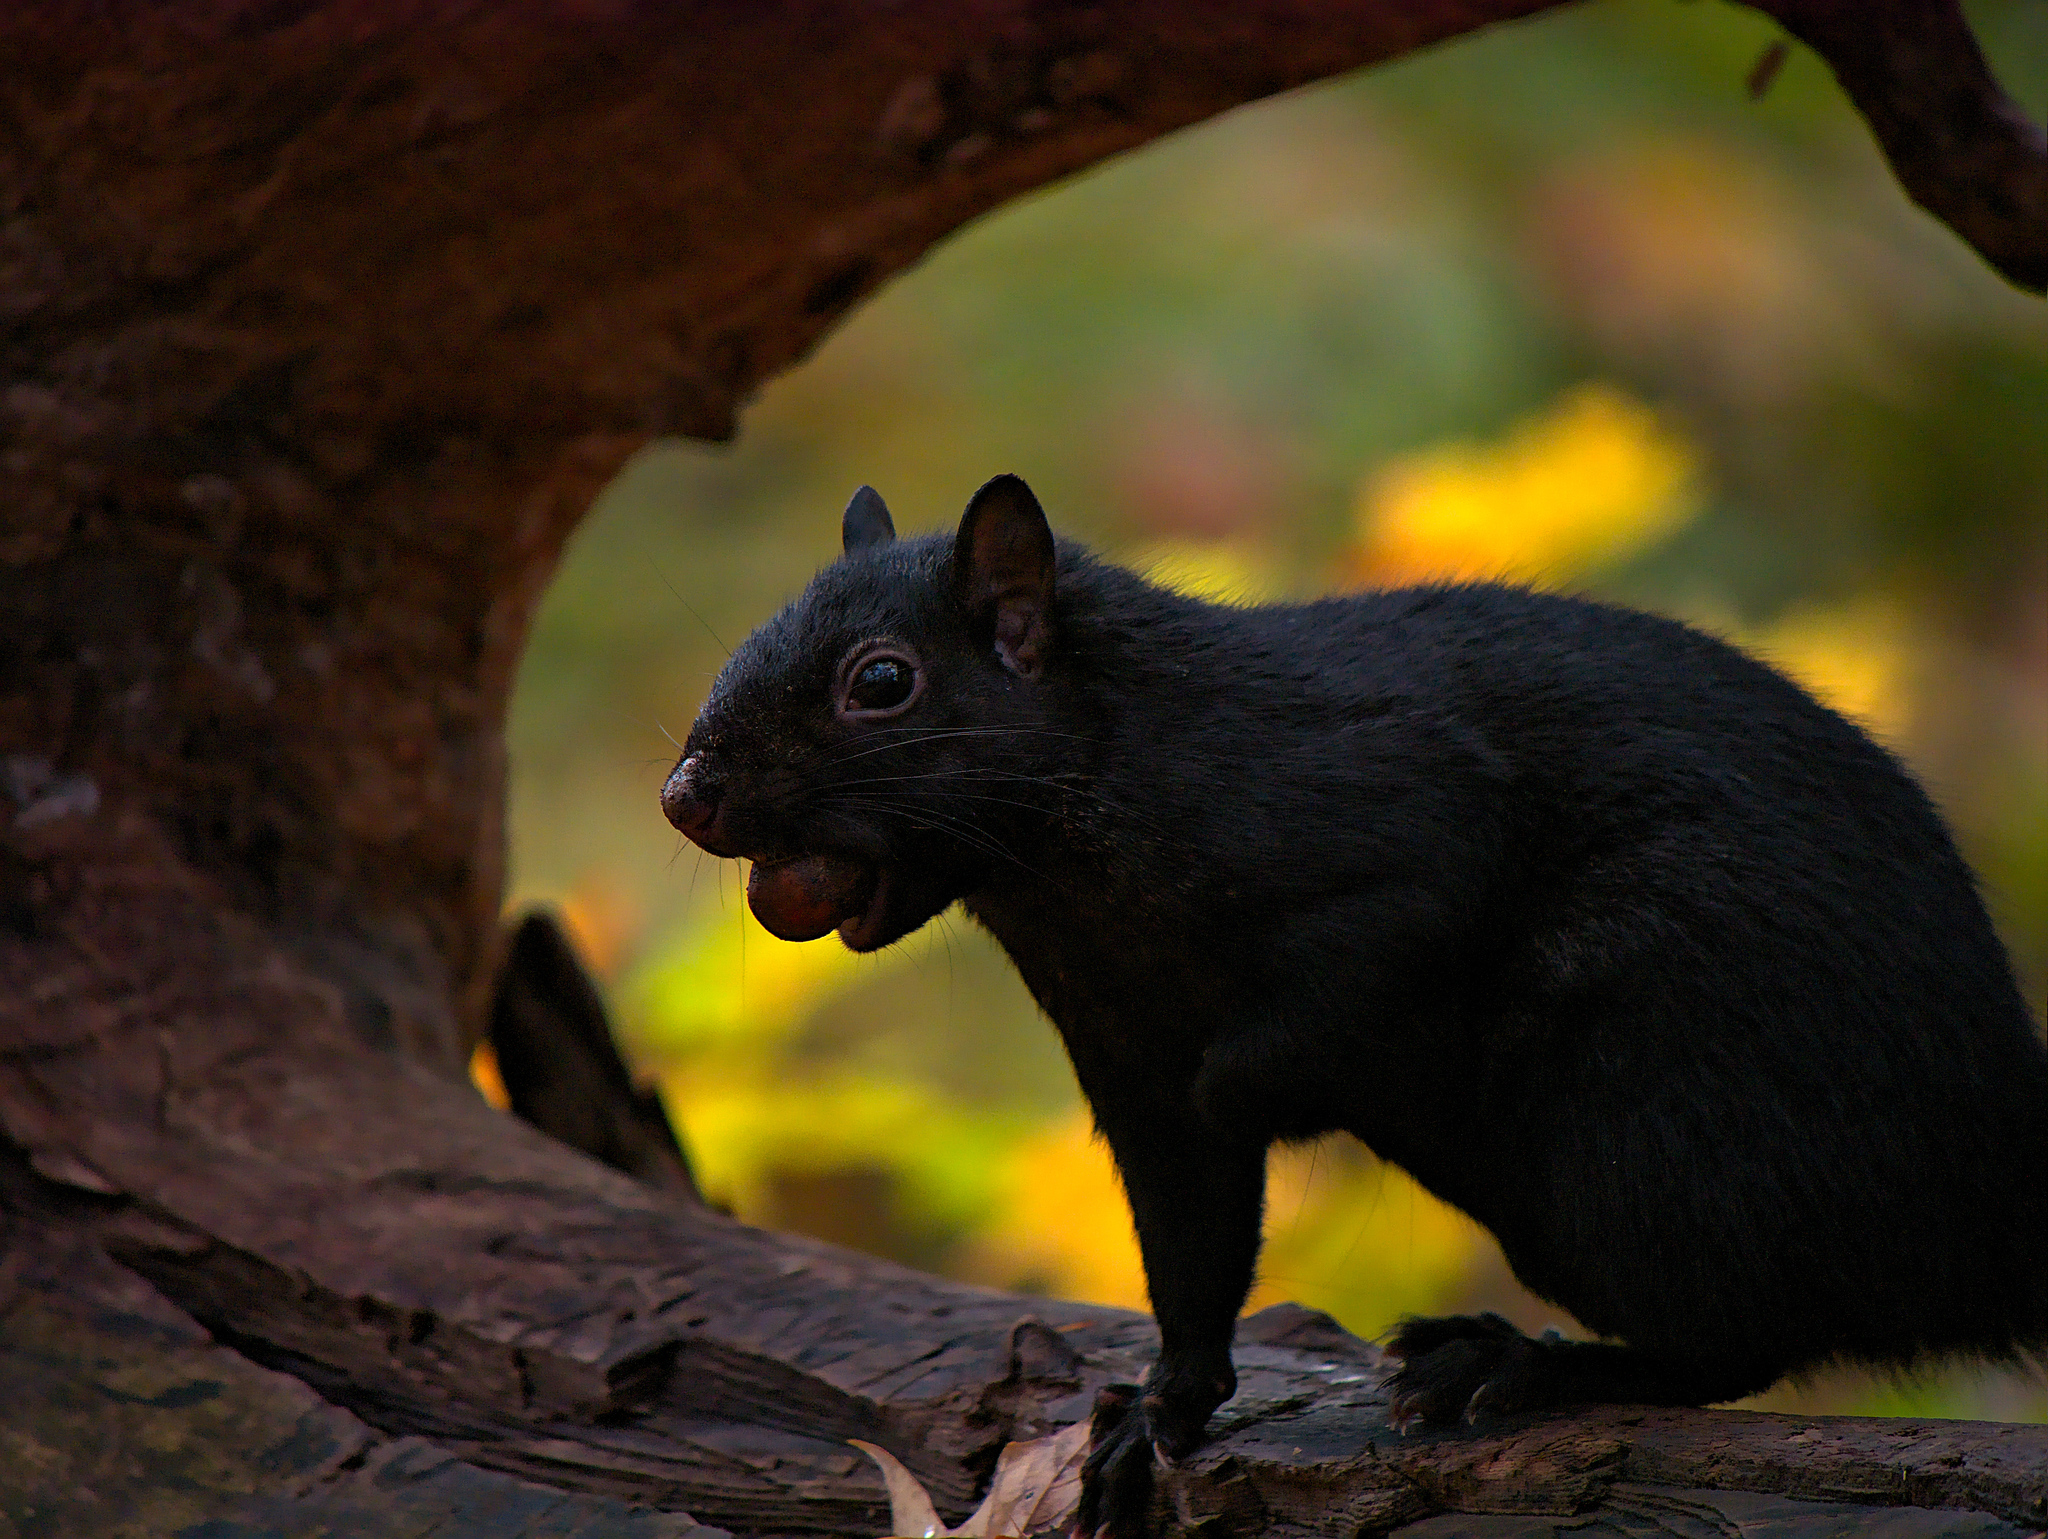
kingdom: Animalia
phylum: Chordata
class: Mammalia
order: Rodentia
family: Sciuridae
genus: Sciurus
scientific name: Sciurus carolinensis
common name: Eastern gray squirrel
